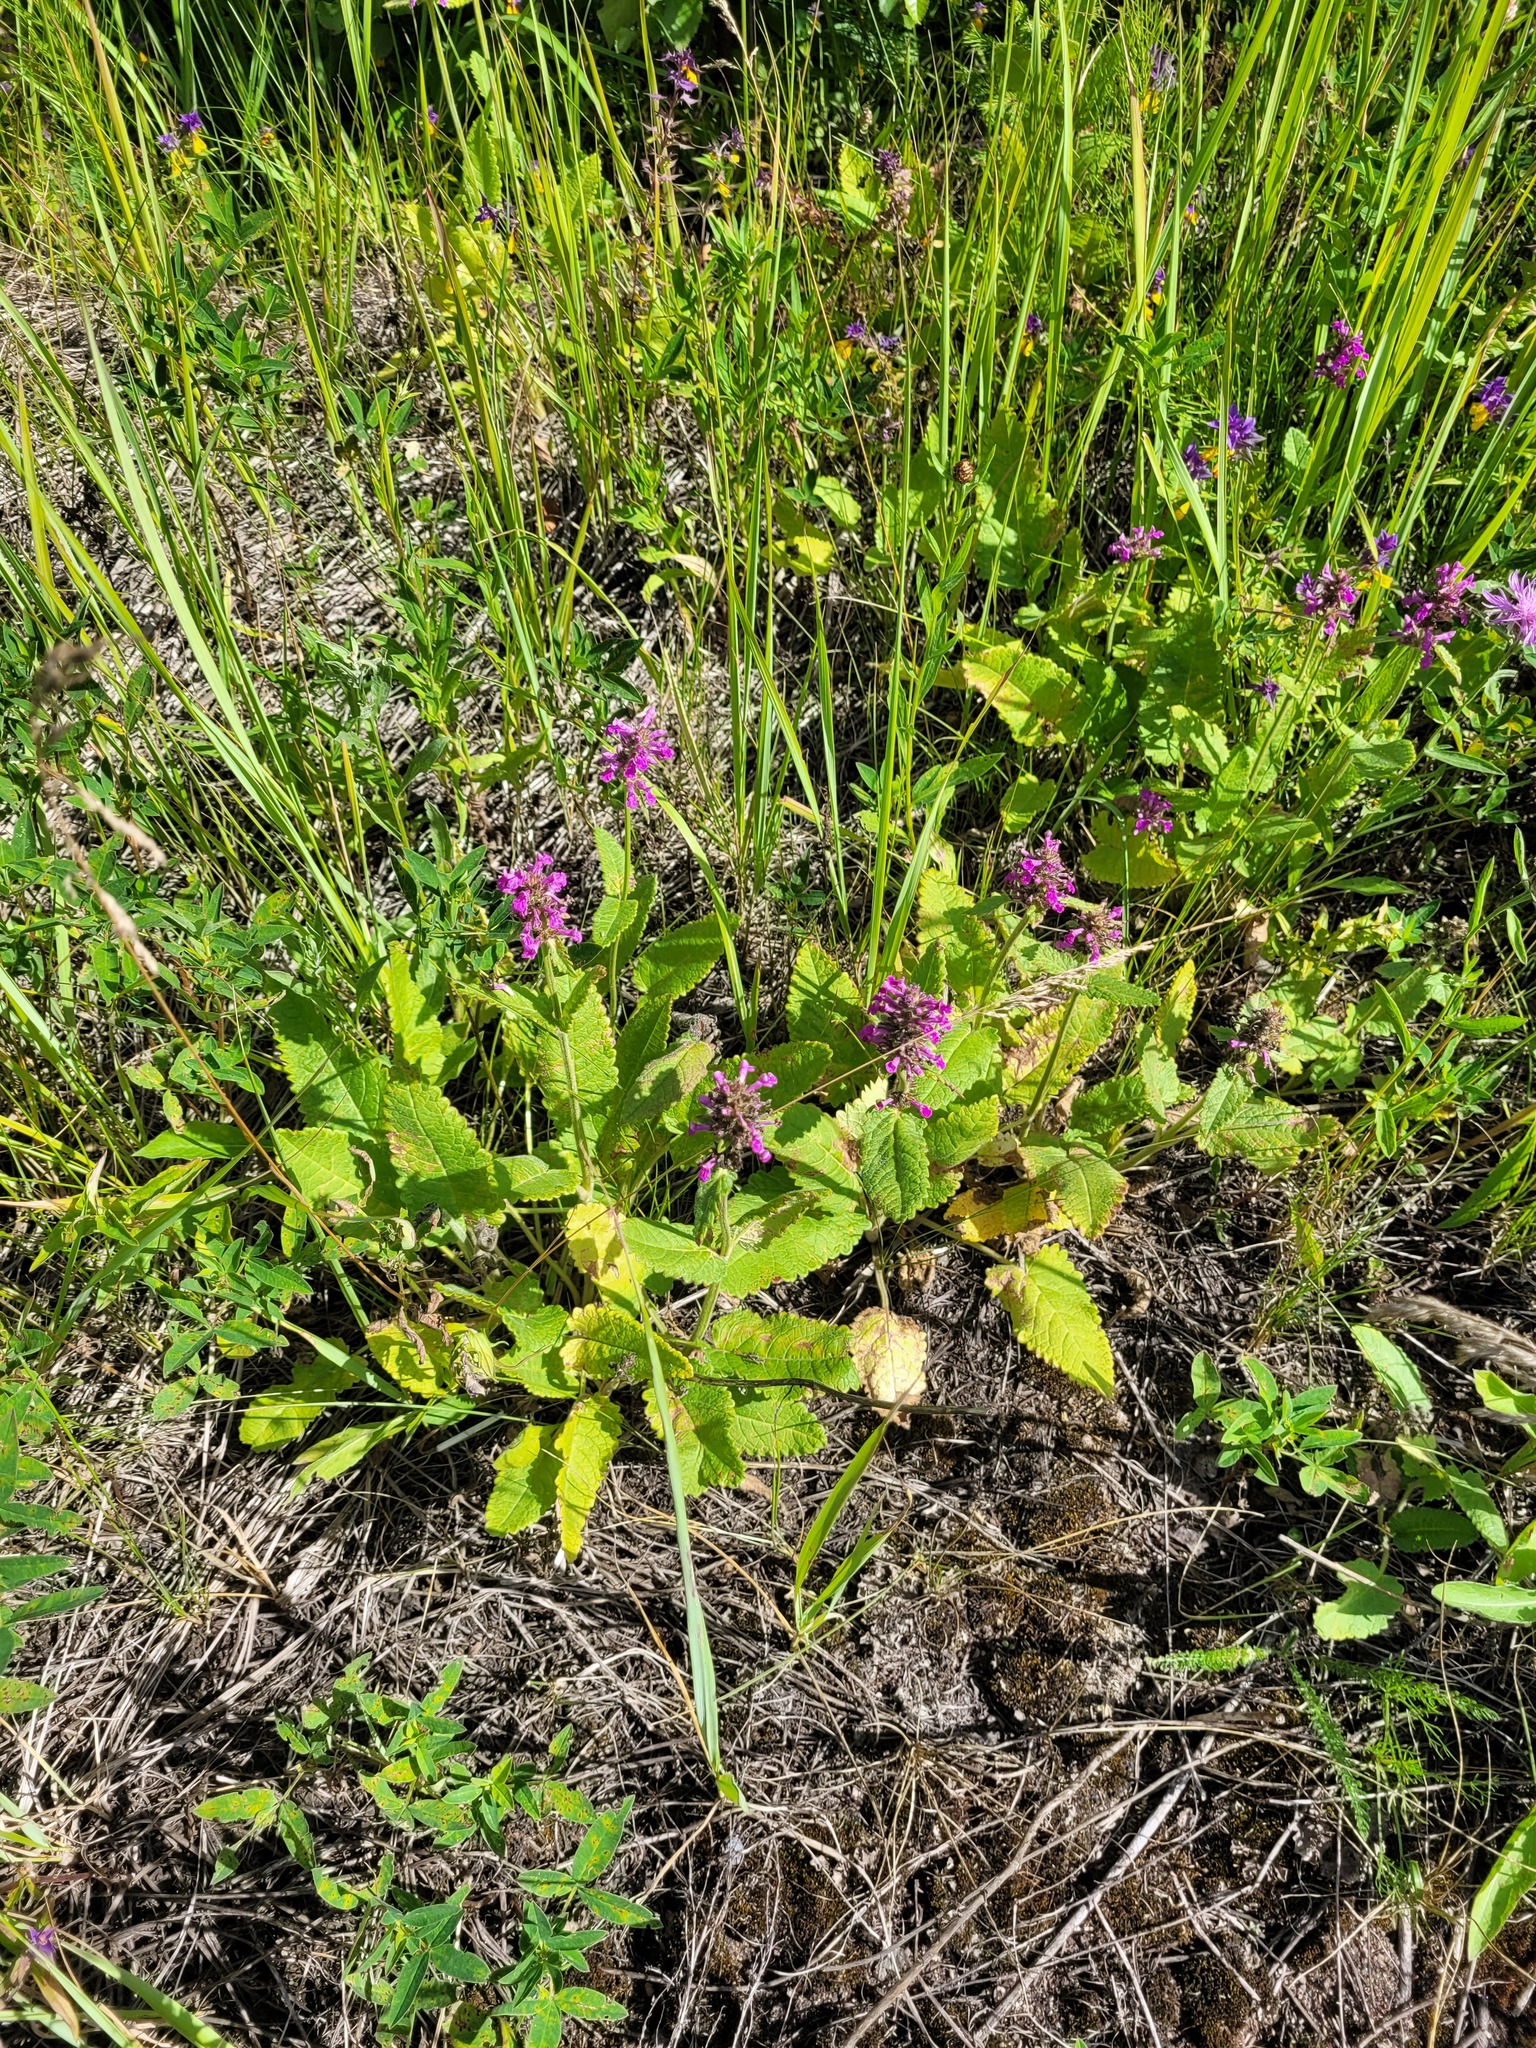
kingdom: Plantae
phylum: Tracheophyta
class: Magnoliopsida
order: Lamiales
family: Lamiaceae
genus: Betonica
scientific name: Betonica officinalis
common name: Bishop's-wort
